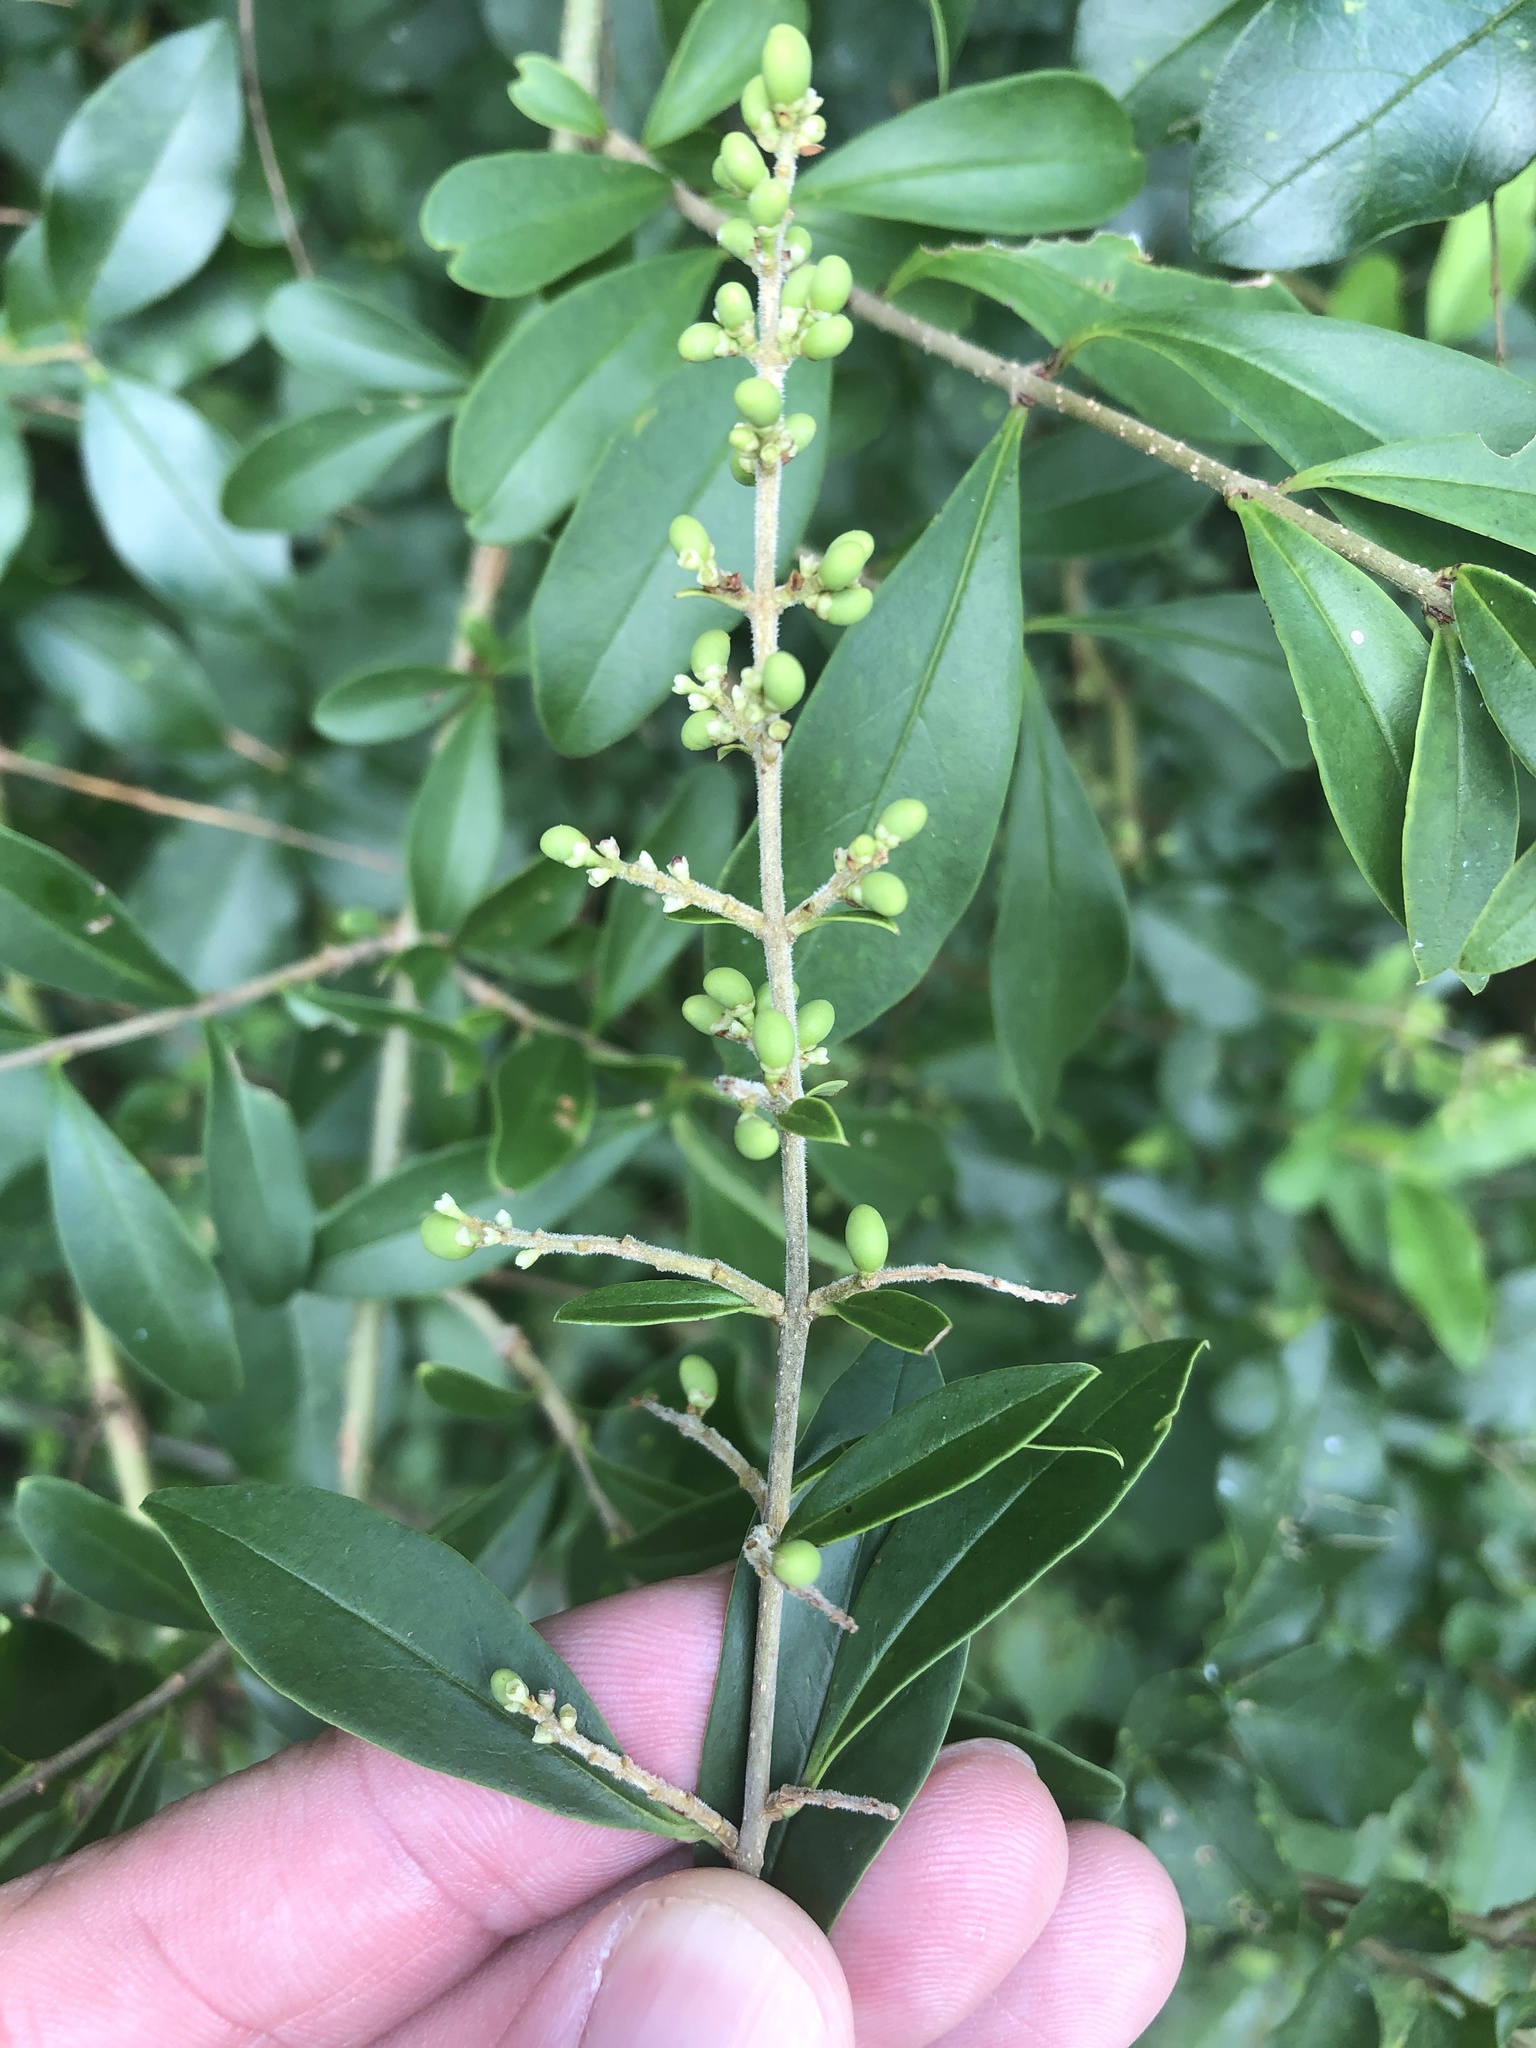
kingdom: Plantae
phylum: Tracheophyta
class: Magnoliopsida
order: Lamiales
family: Oleaceae
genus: Ligustrum
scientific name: Ligustrum quihoui
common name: Waxyleaf privet
